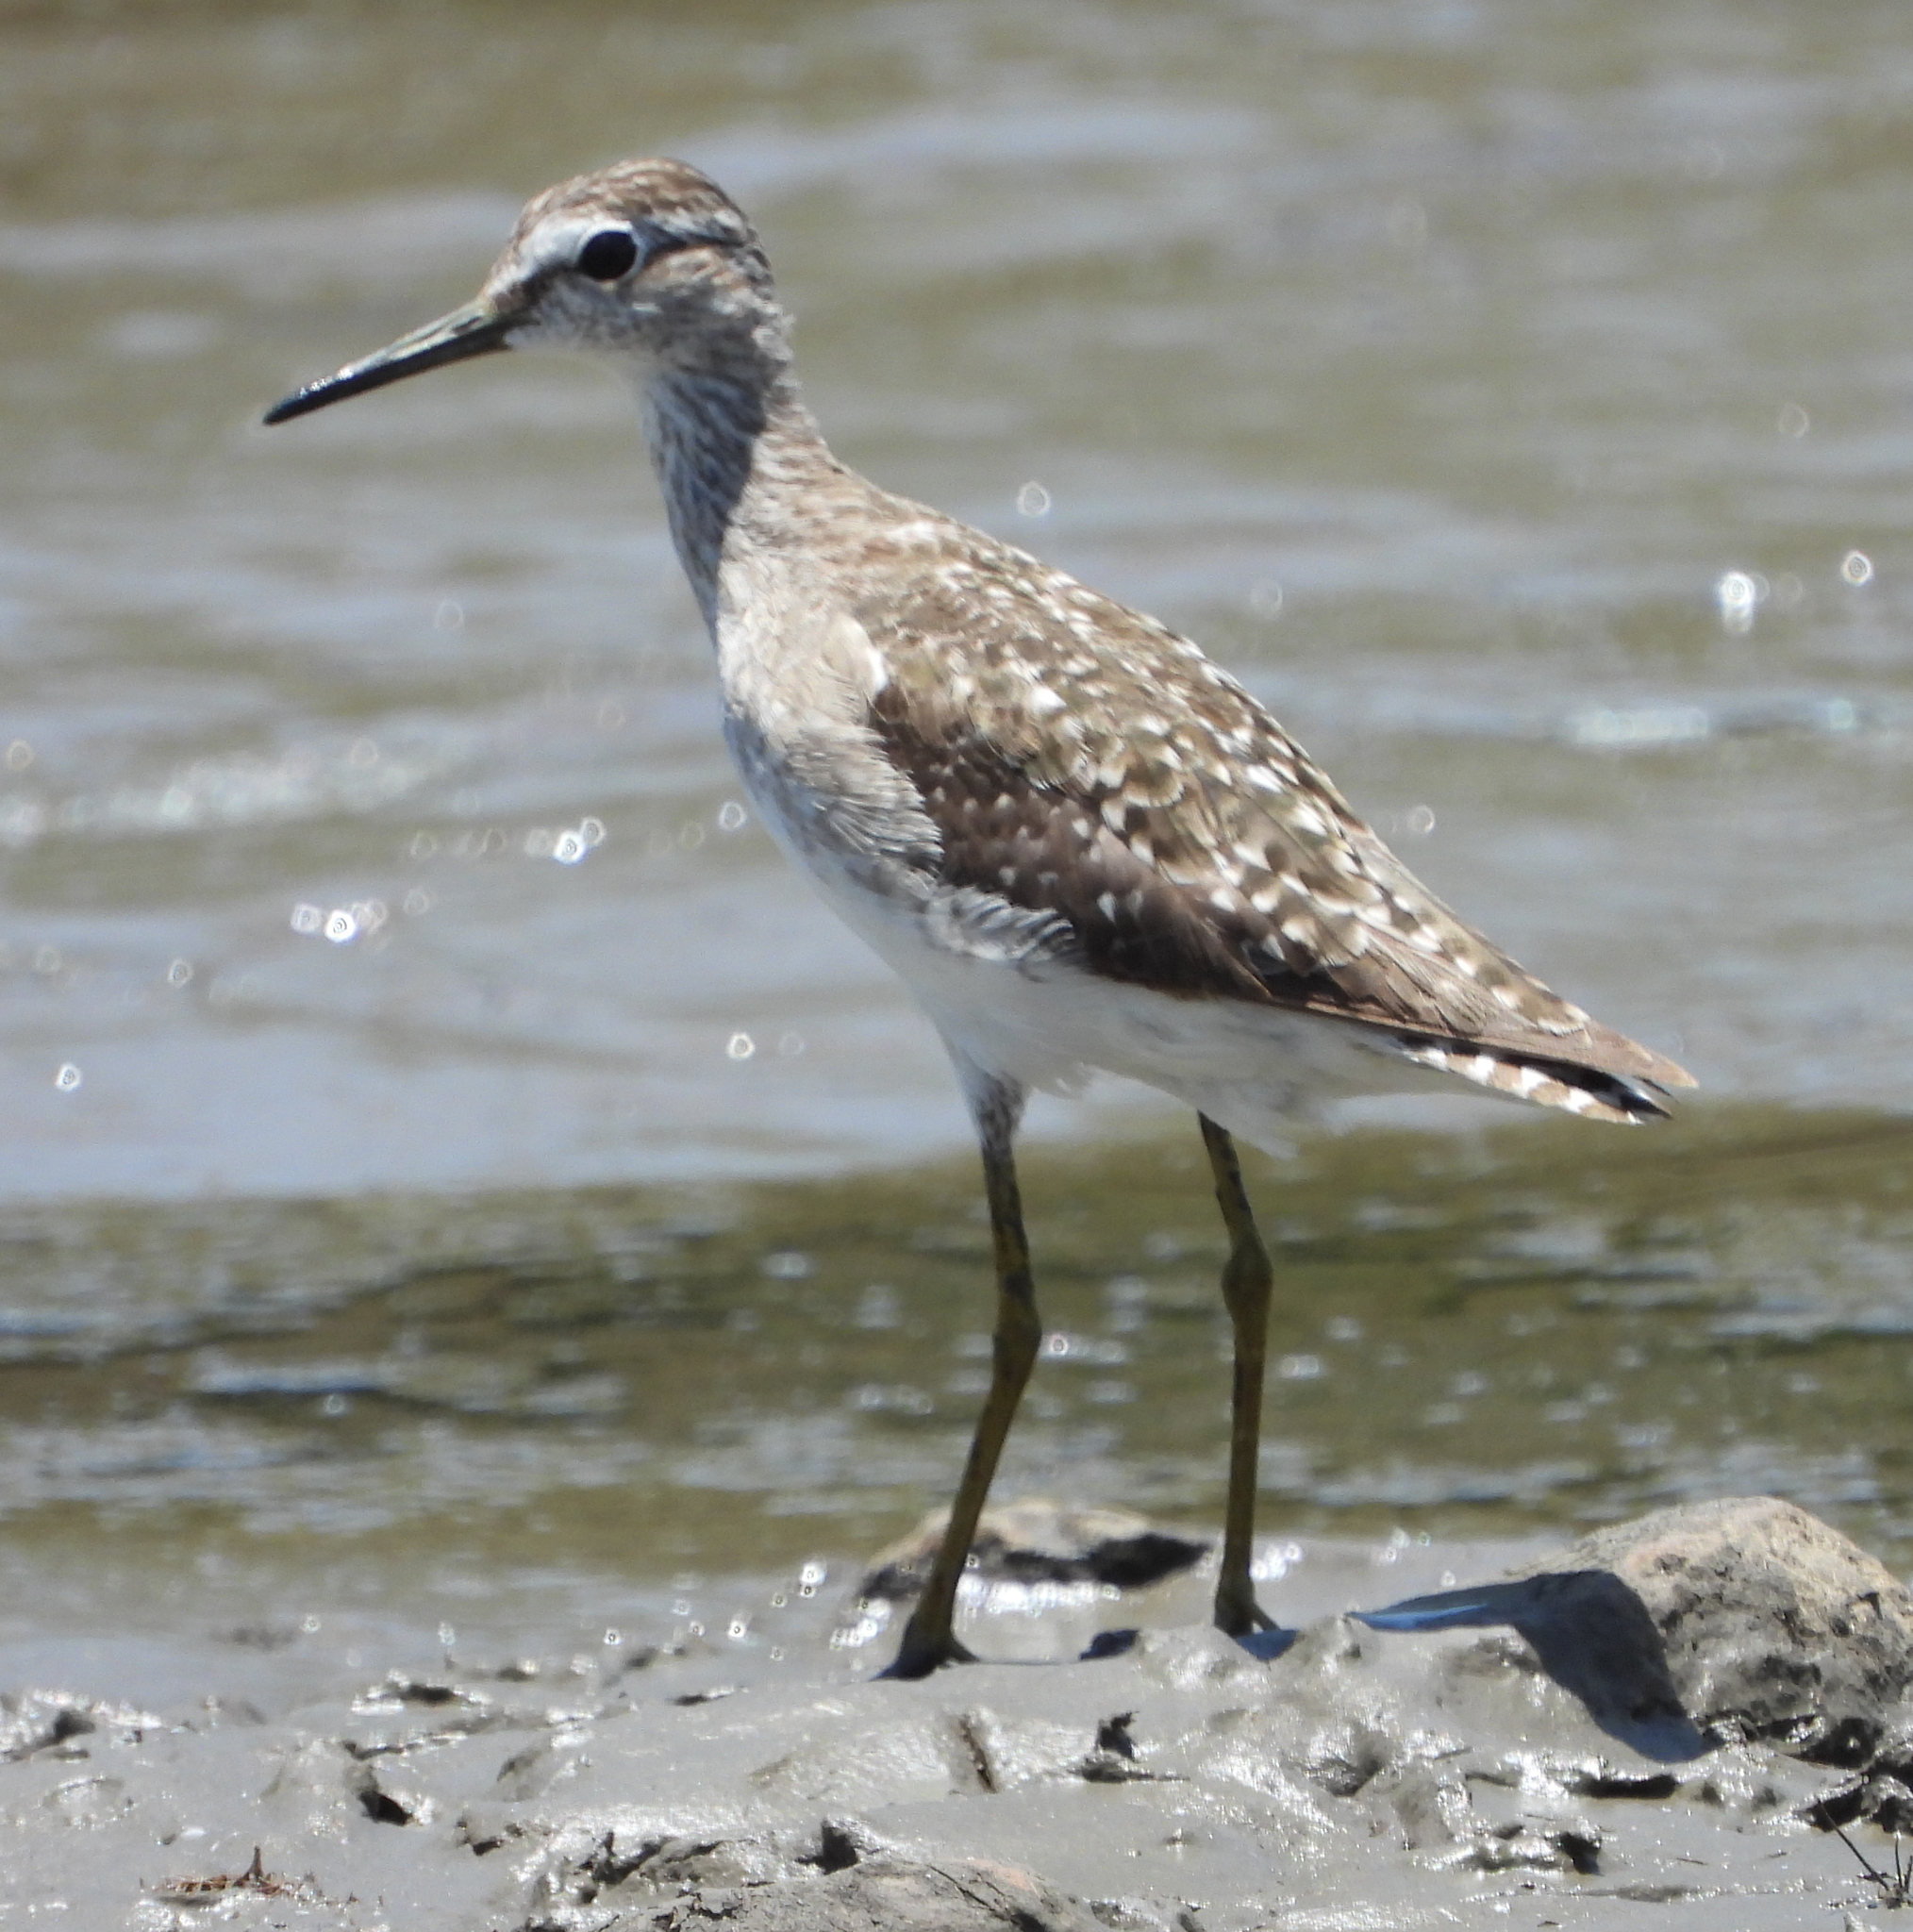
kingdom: Animalia
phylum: Chordata
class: Aves
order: Charadriiformes
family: Scolopacidae
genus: Tringa
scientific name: Tringa glareola
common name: Wood sandpiper
